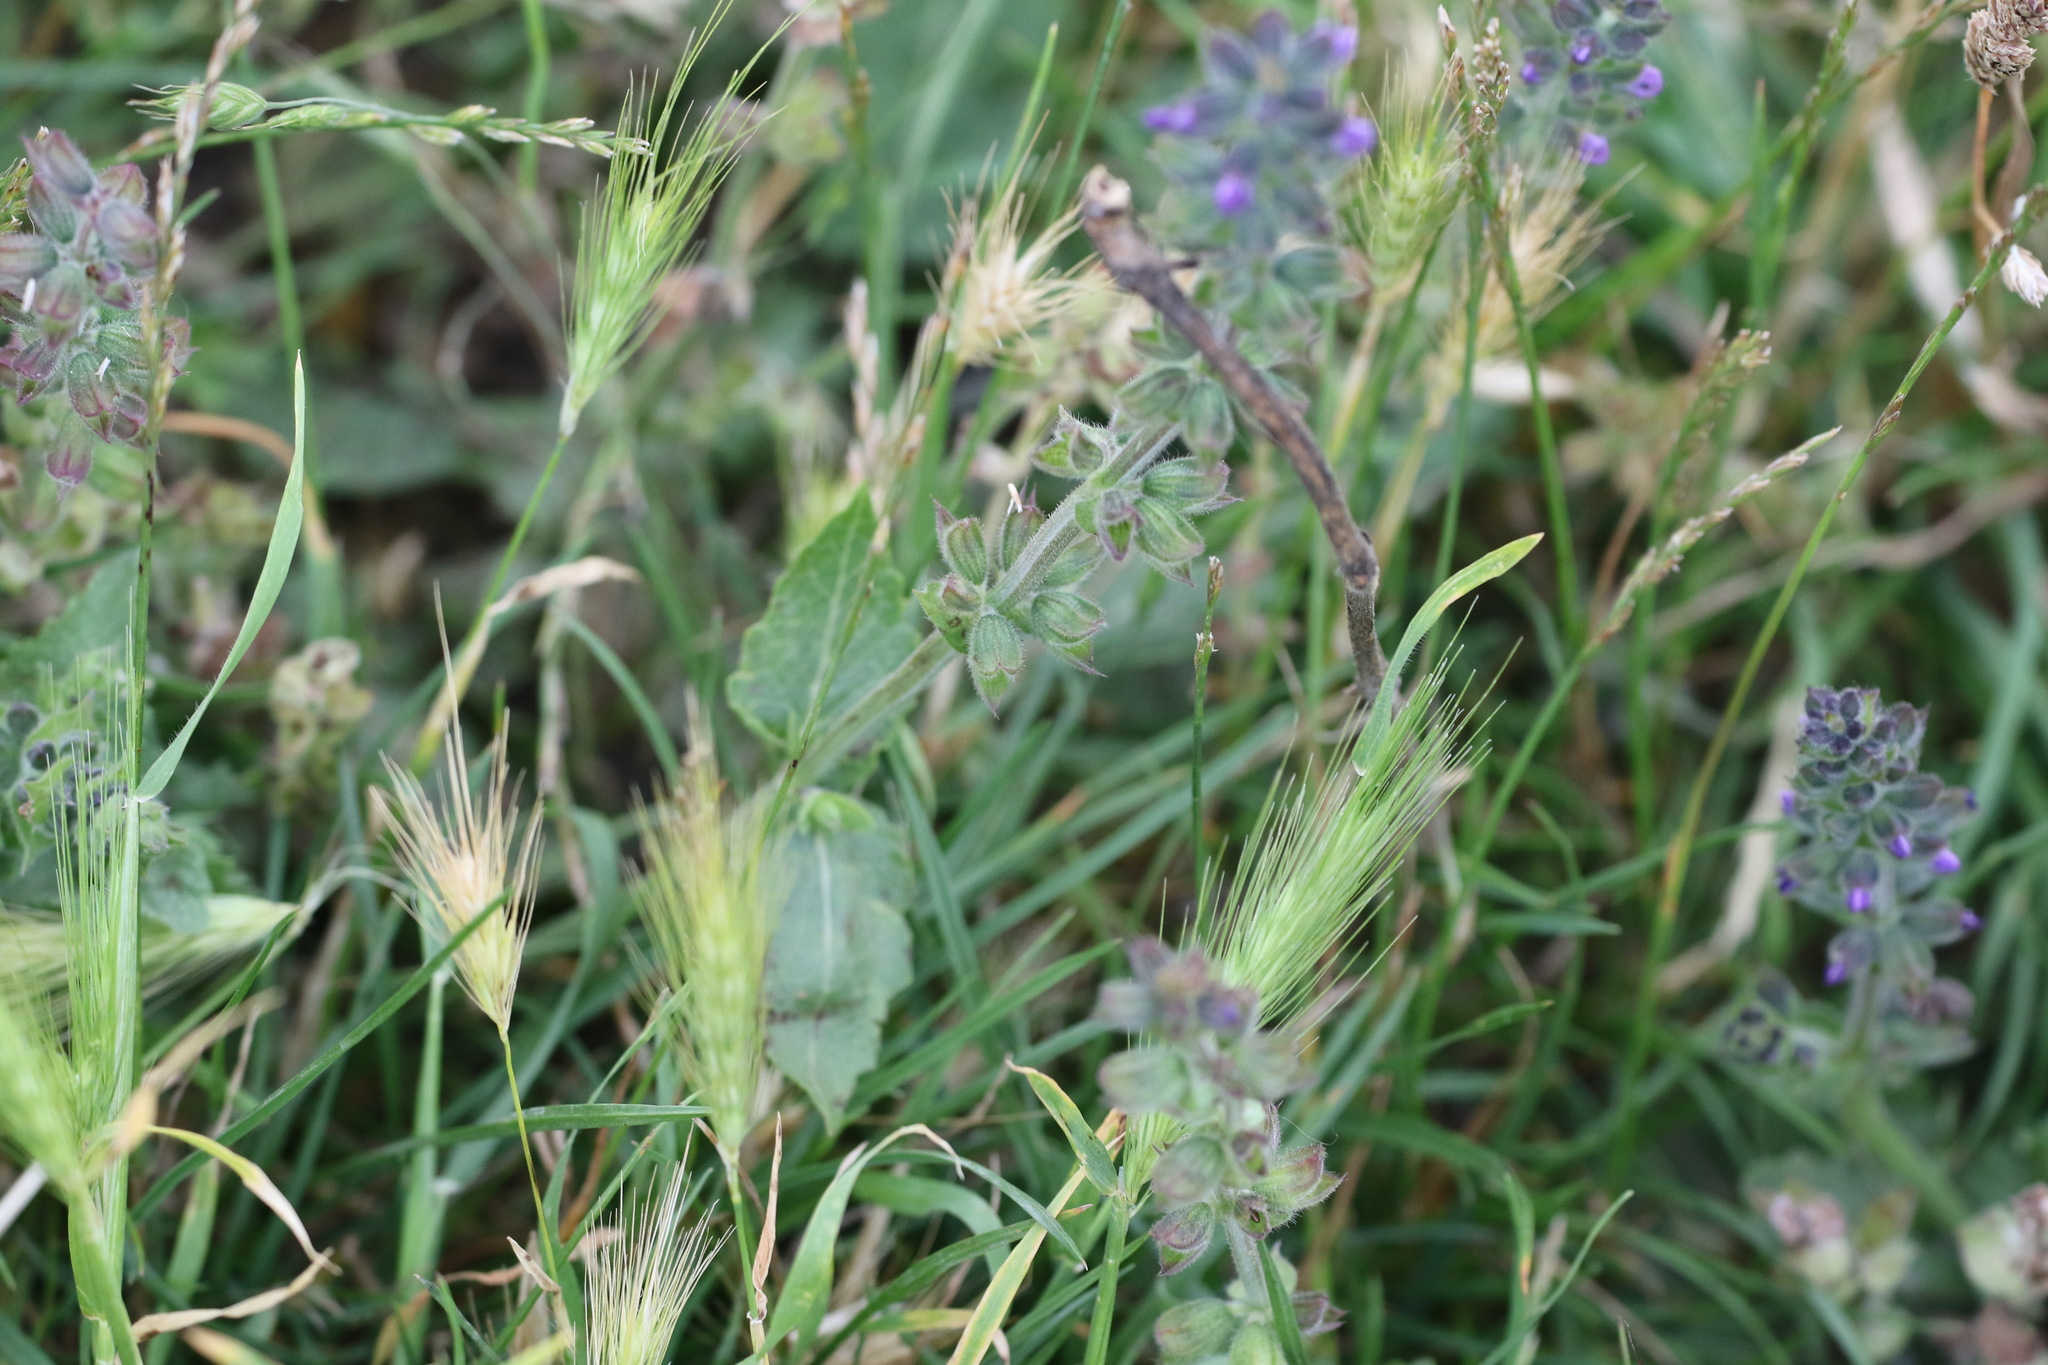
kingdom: Plantae
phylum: Tracheophyta
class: Magnoliopsida
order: Lamiales
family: Lamiaceae
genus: Salvia
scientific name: Salvia verbenaca
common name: Wild clary
